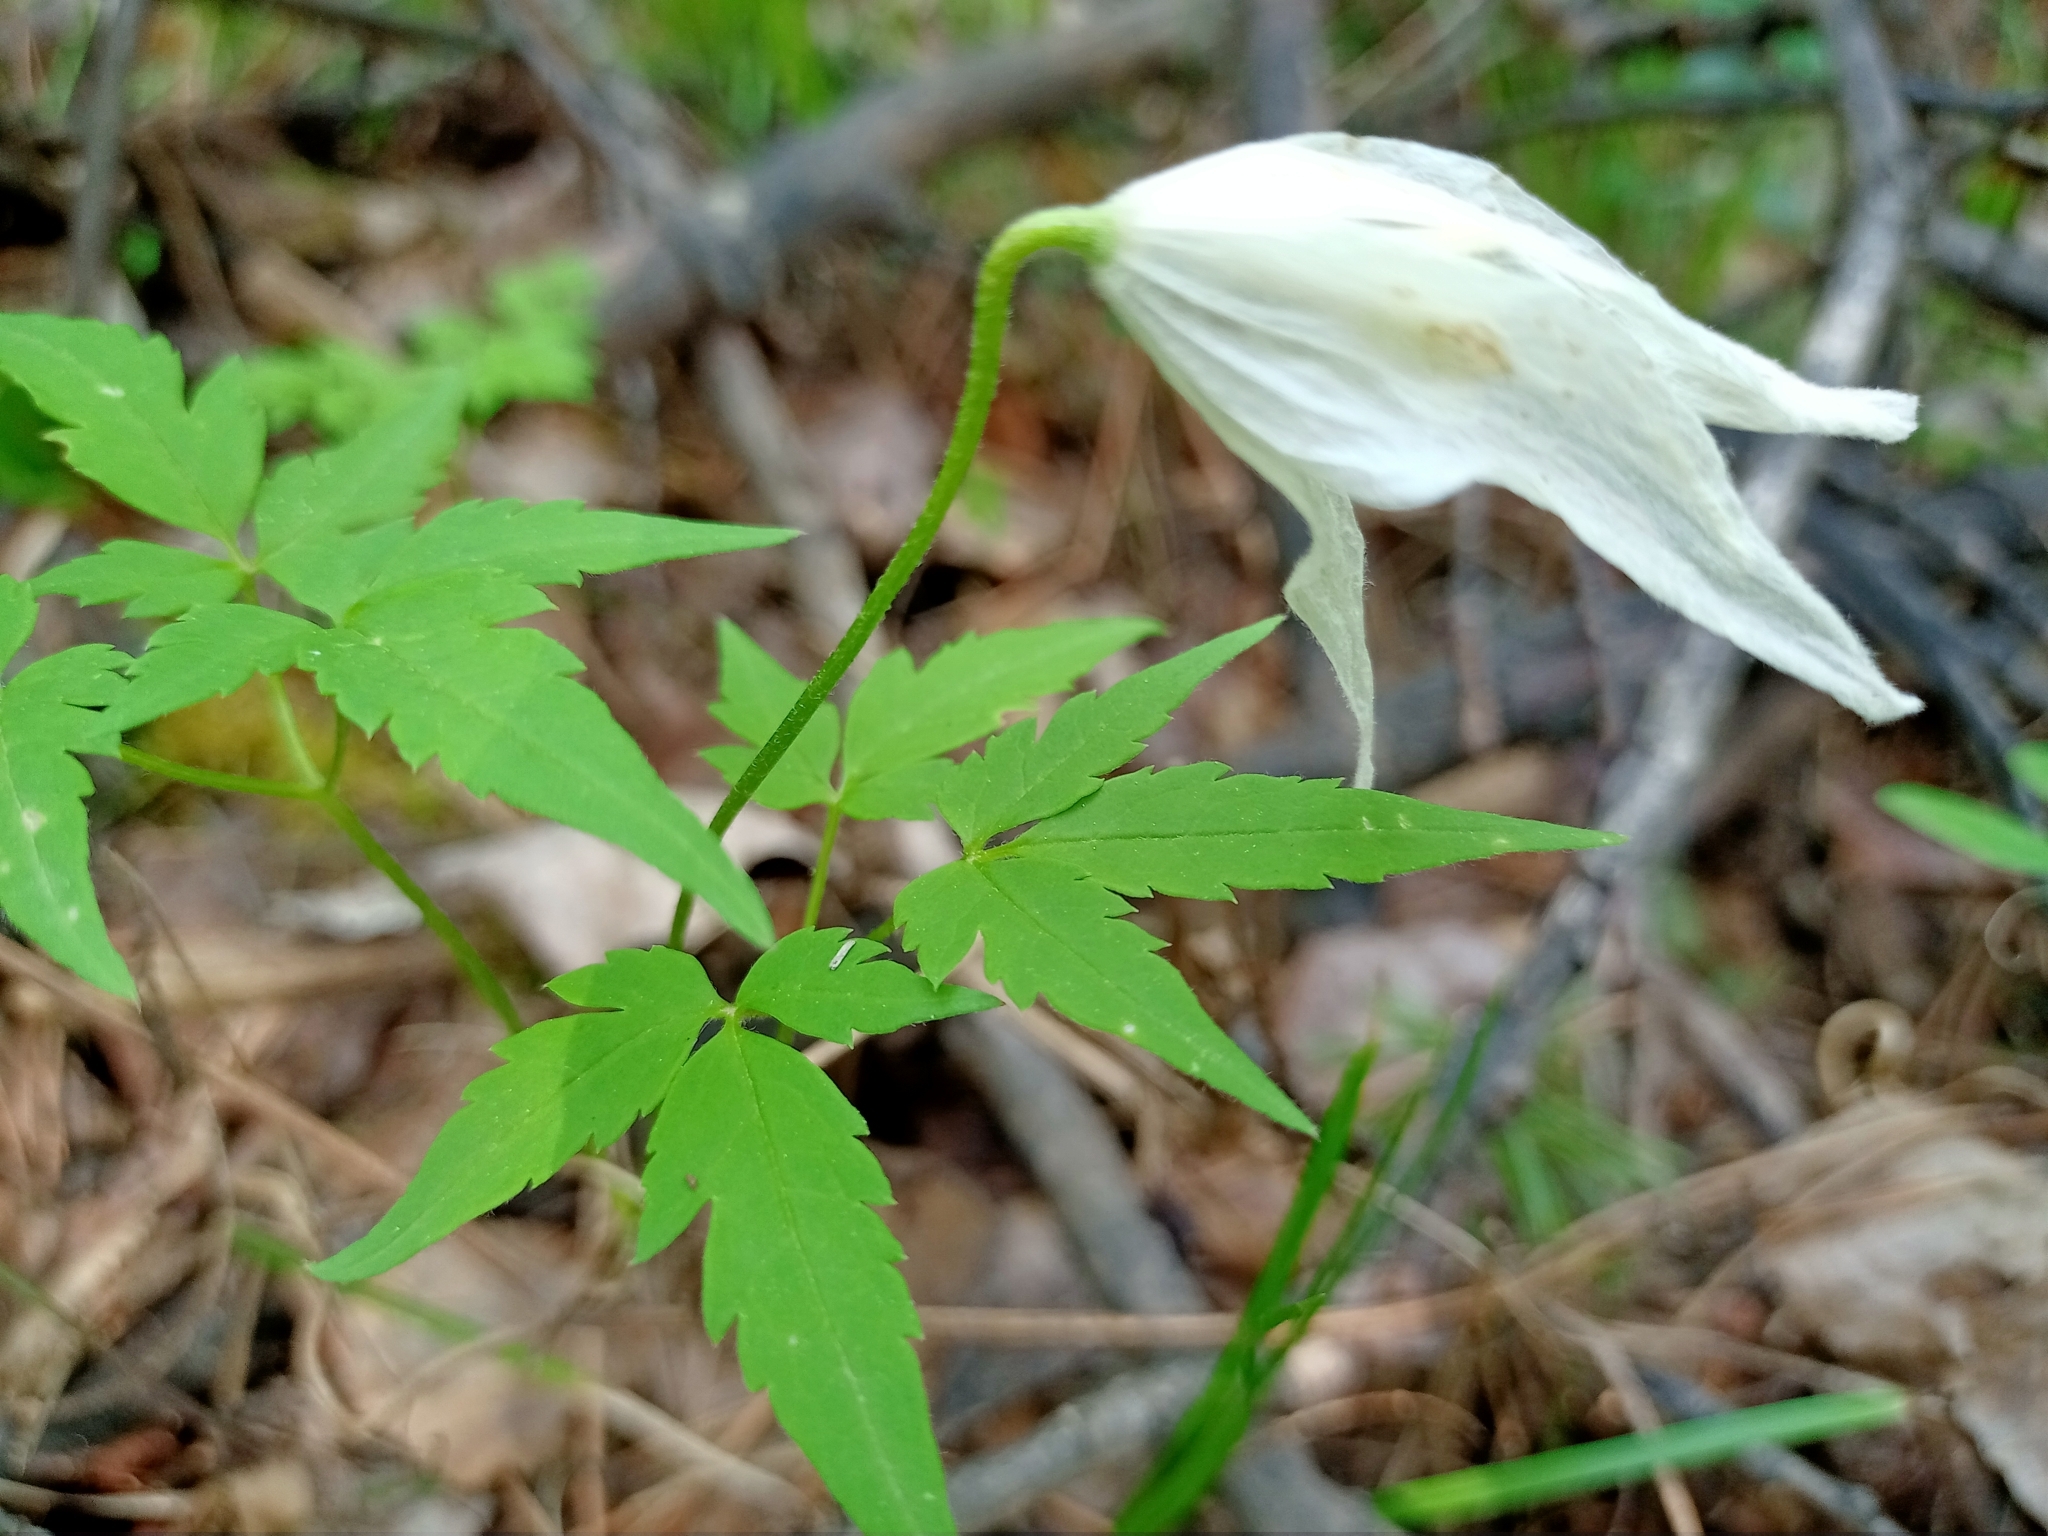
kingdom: Plantae
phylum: Tracheophyta
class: Magnoliopsida
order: Ranunculales
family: Ranunculaceae
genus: Clematis
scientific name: Clematis sibirica
